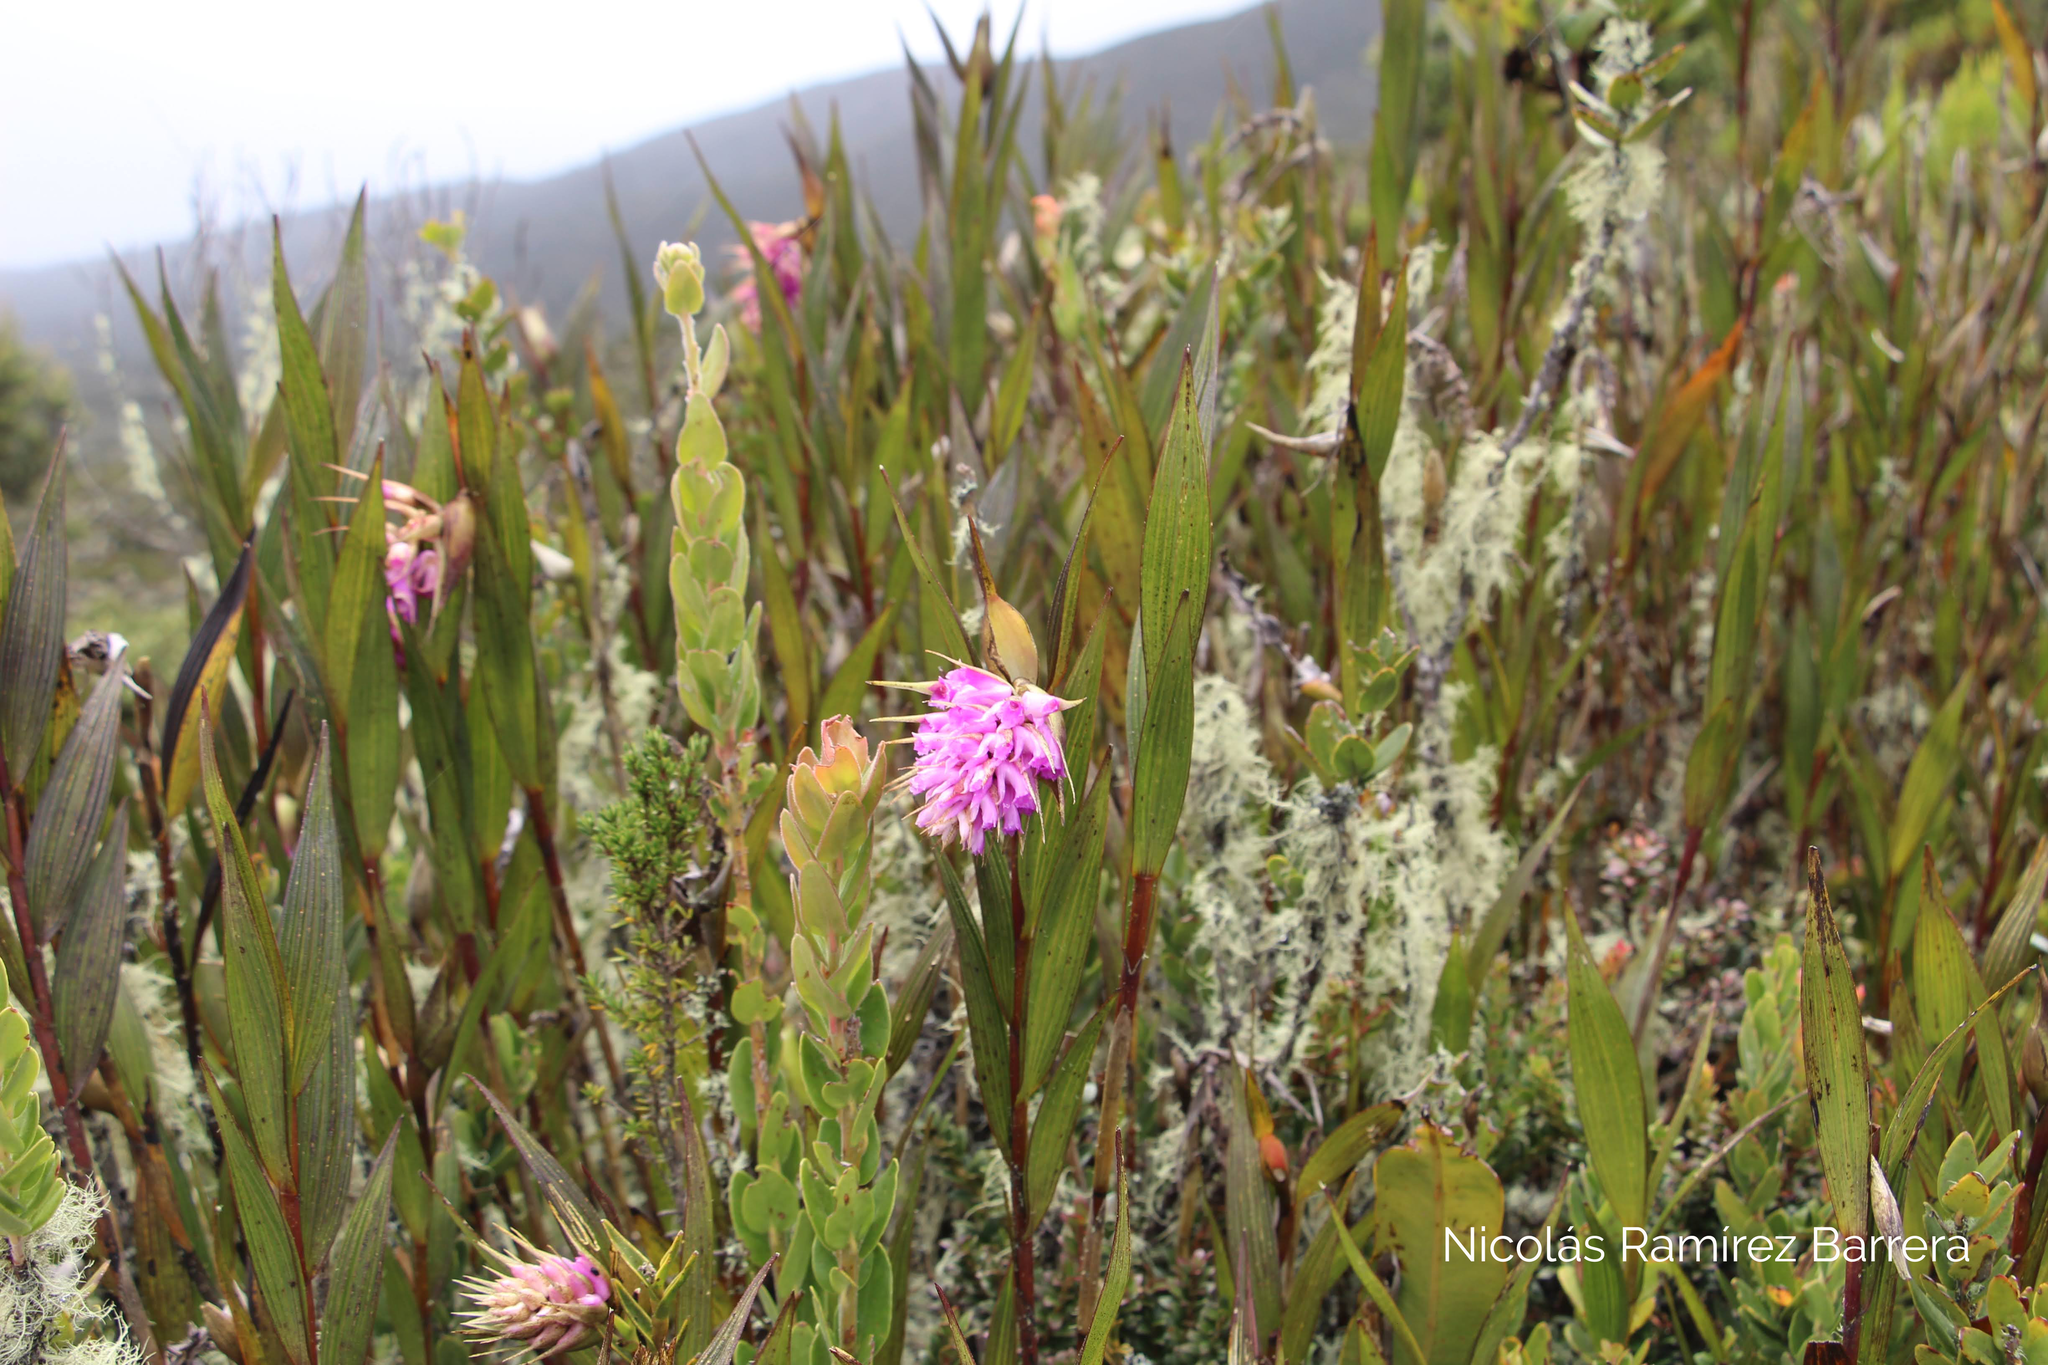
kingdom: Plantae
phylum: Tracheophyta
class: Liliopsida
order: Asparagales
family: Orchidaceae
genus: Elleanthus
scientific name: Elleanthus maculatus
